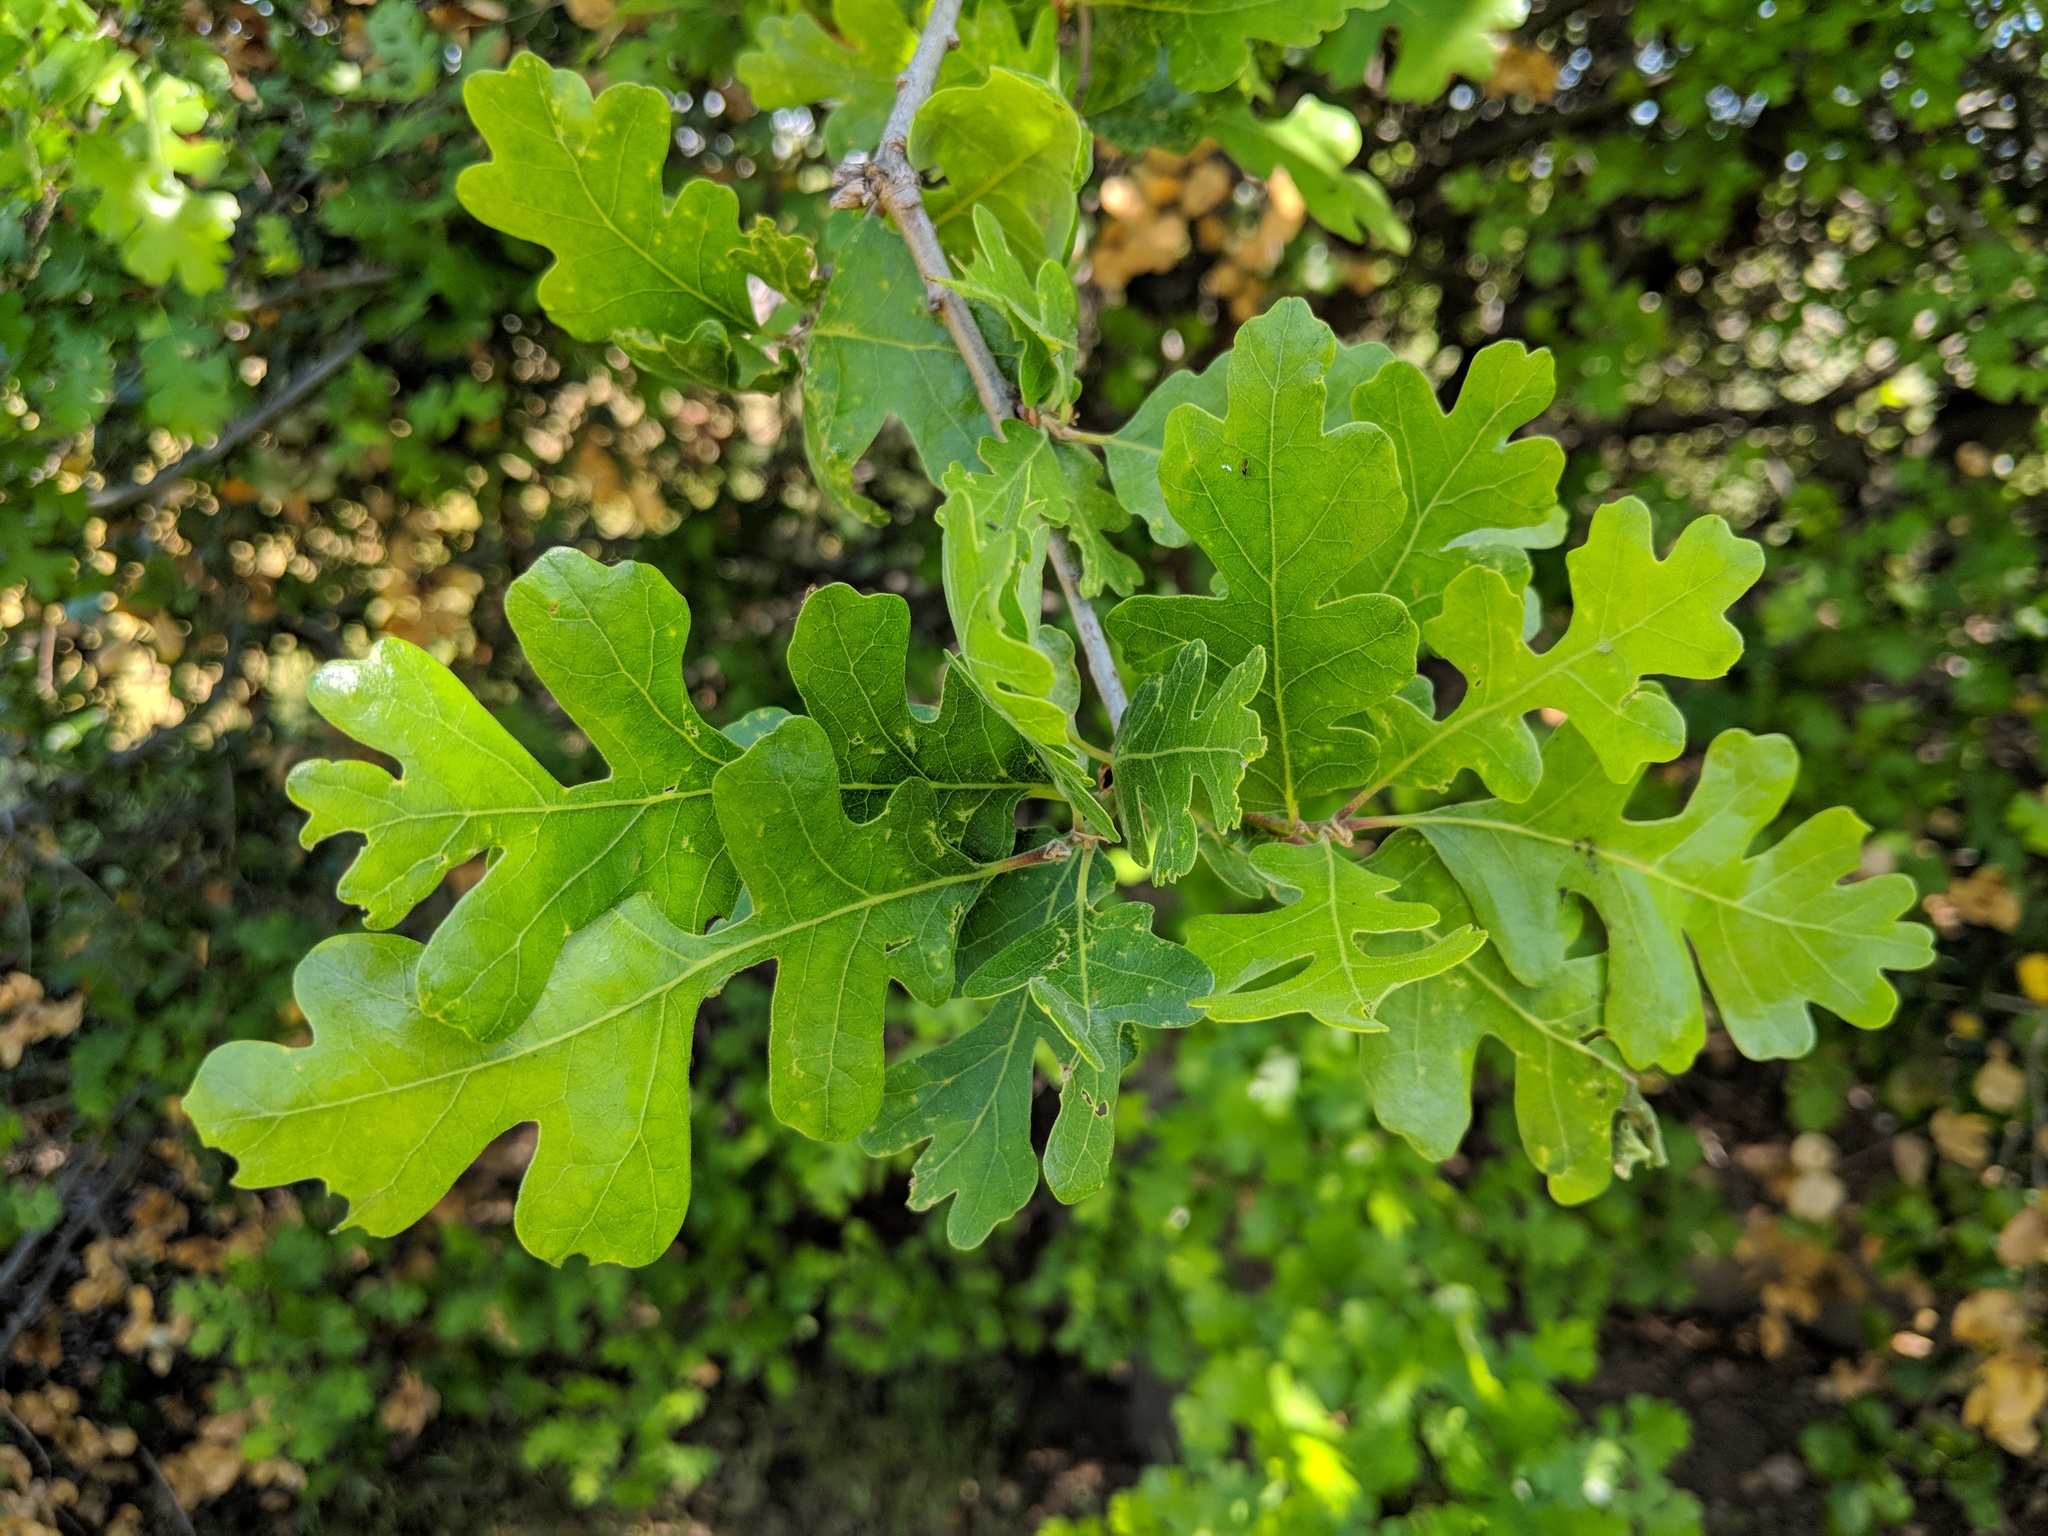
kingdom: Plantae
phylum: Tracheophyta
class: Magnoliopsida
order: Fagales
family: Fagaceae
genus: Quercus
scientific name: Quercus lobata
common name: Valley oak
